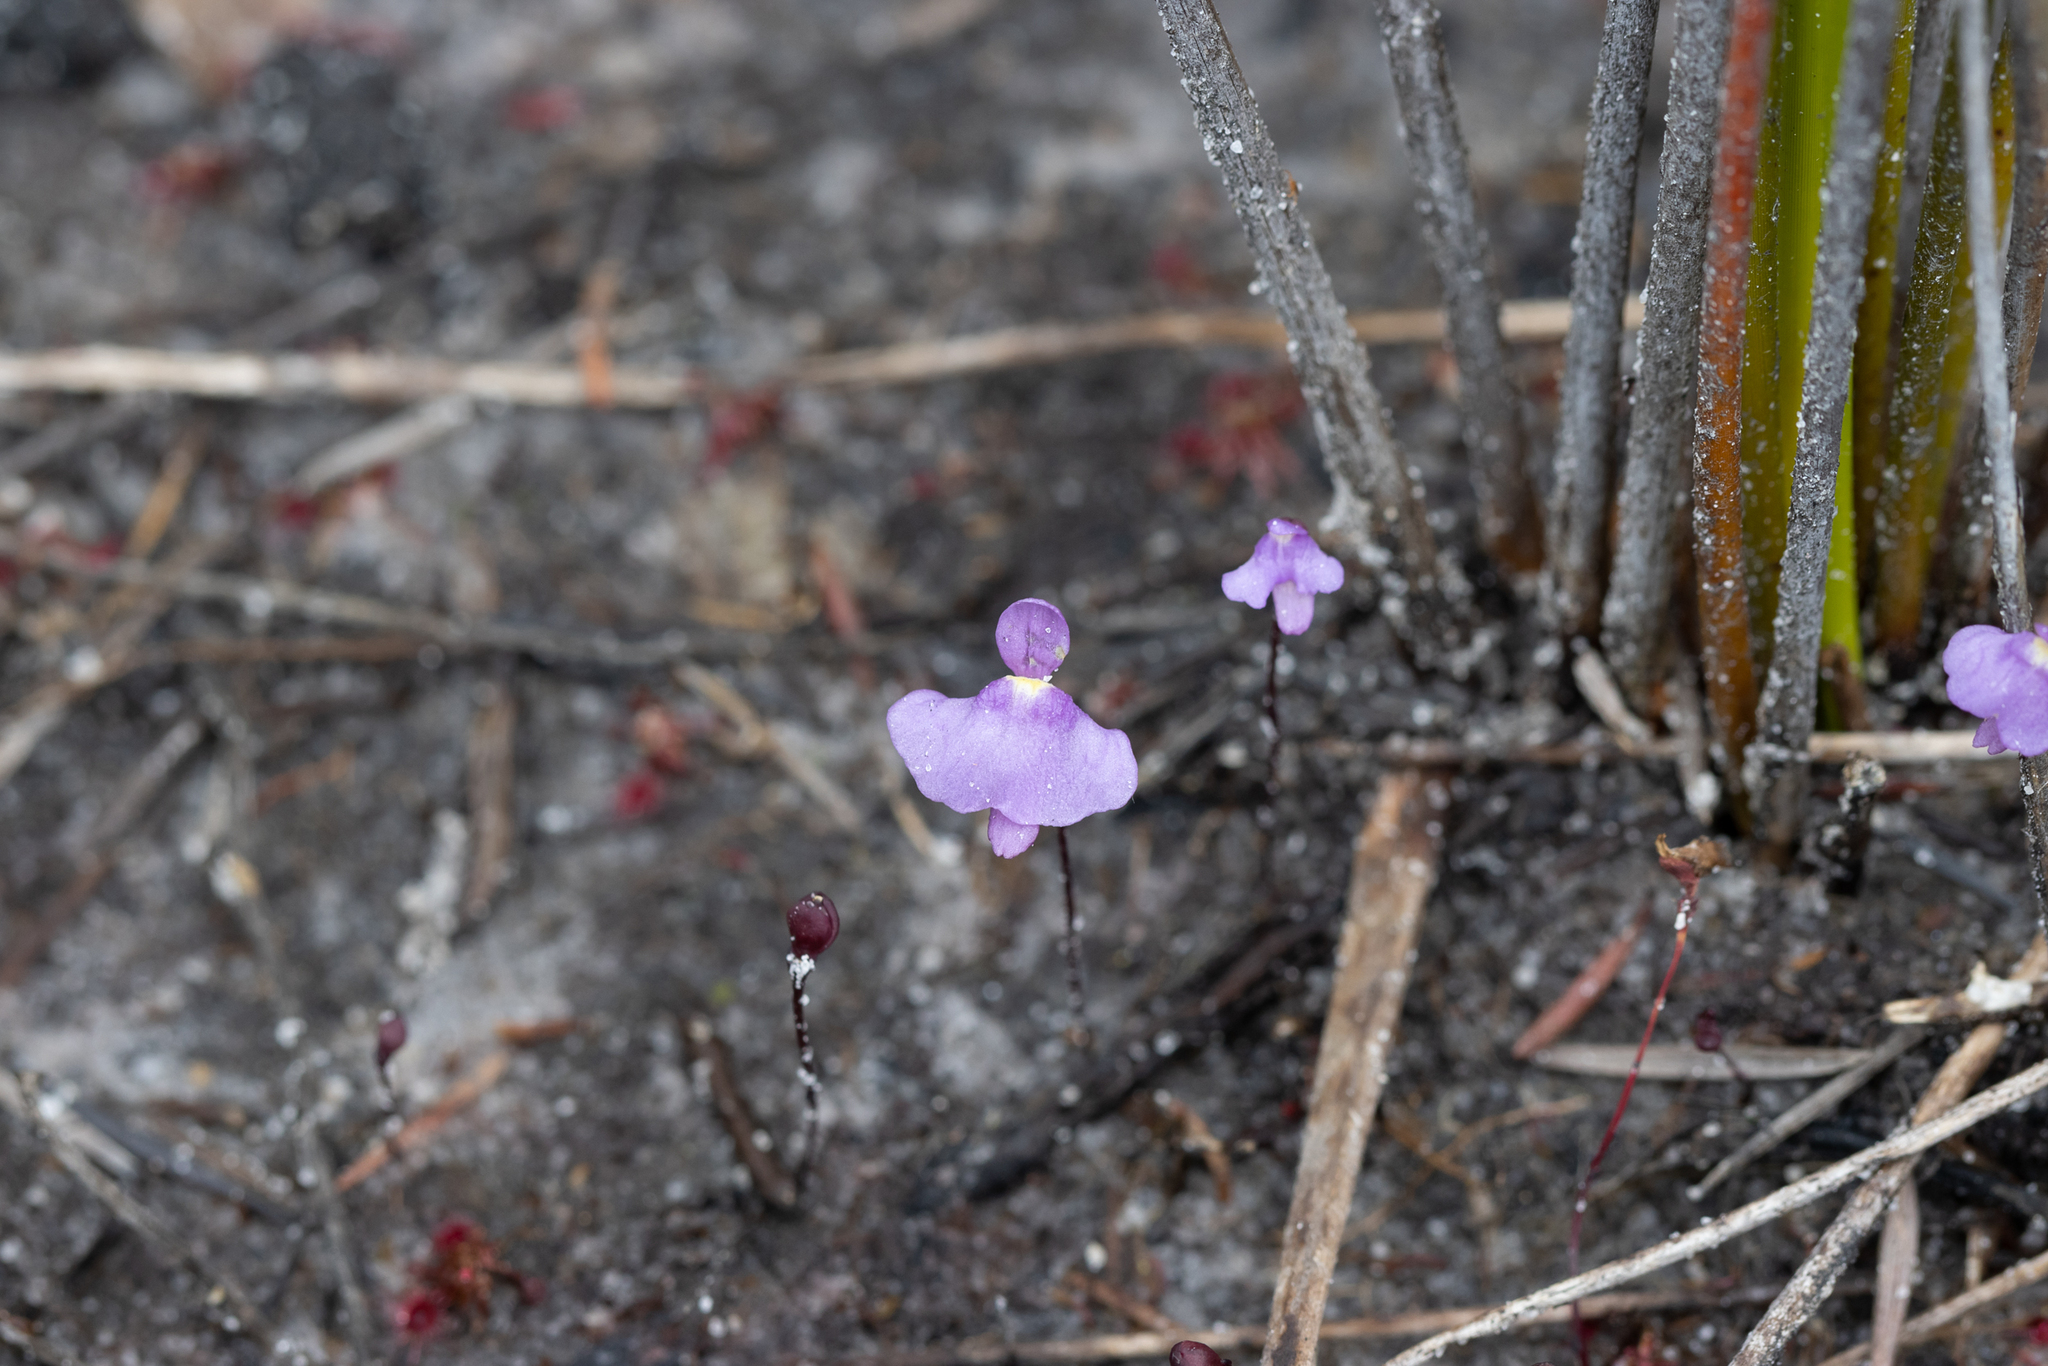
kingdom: Plantae
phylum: Tracheophyta
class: Magnoliopsida
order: Lamiales
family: Lentibulariaceae
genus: Utricularia
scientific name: Utricularia simplex
